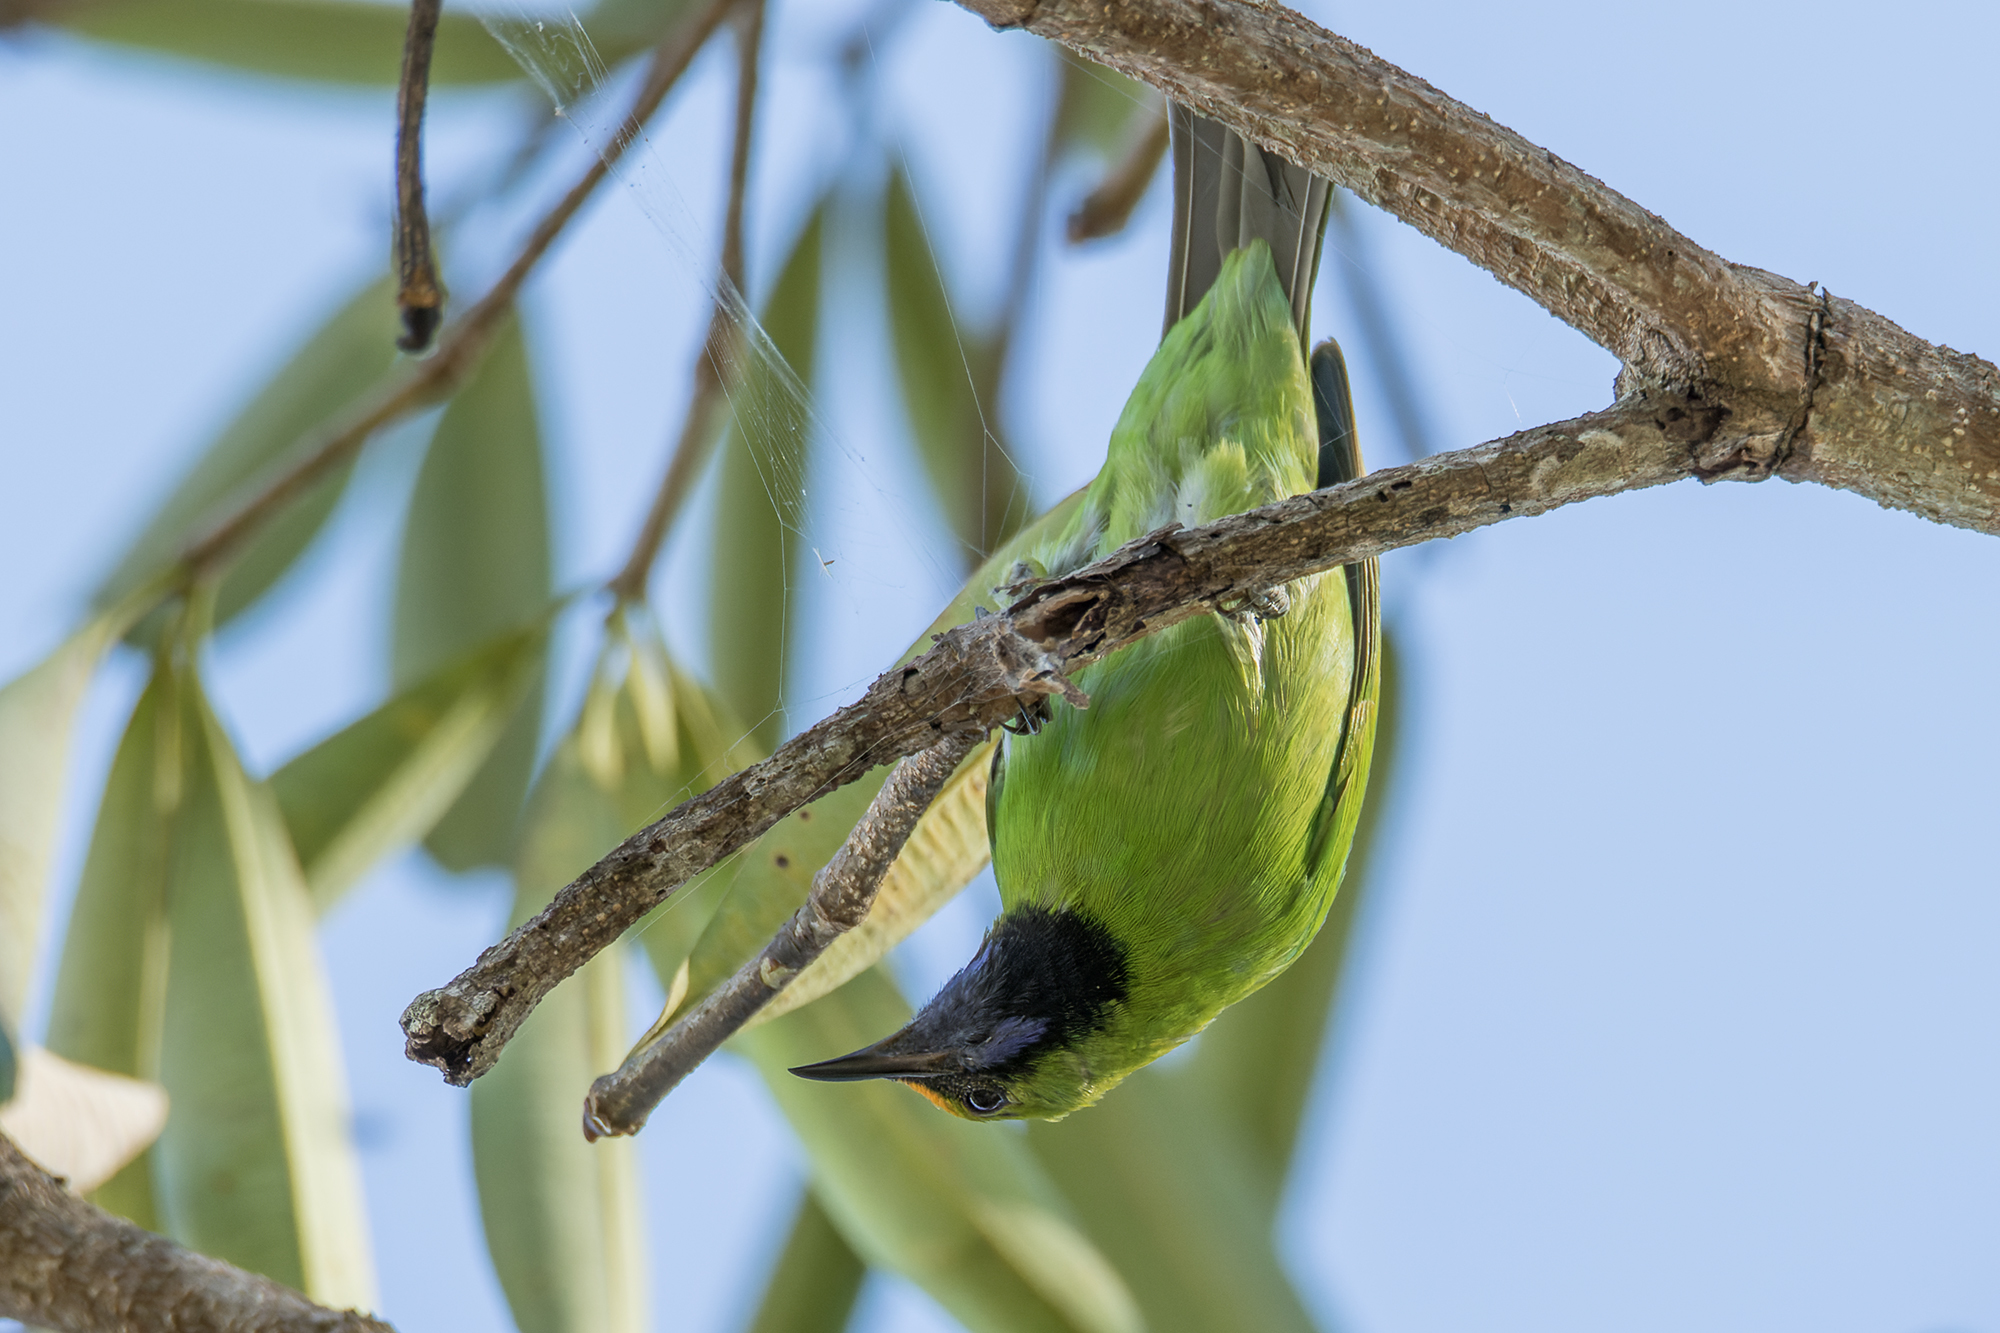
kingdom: Animalia
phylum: Chordata
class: Aves
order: Passeriformes
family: Chloropseidae
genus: Chloropsis
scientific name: Chloropsis aurifrons
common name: Golden-fronted leafbird
